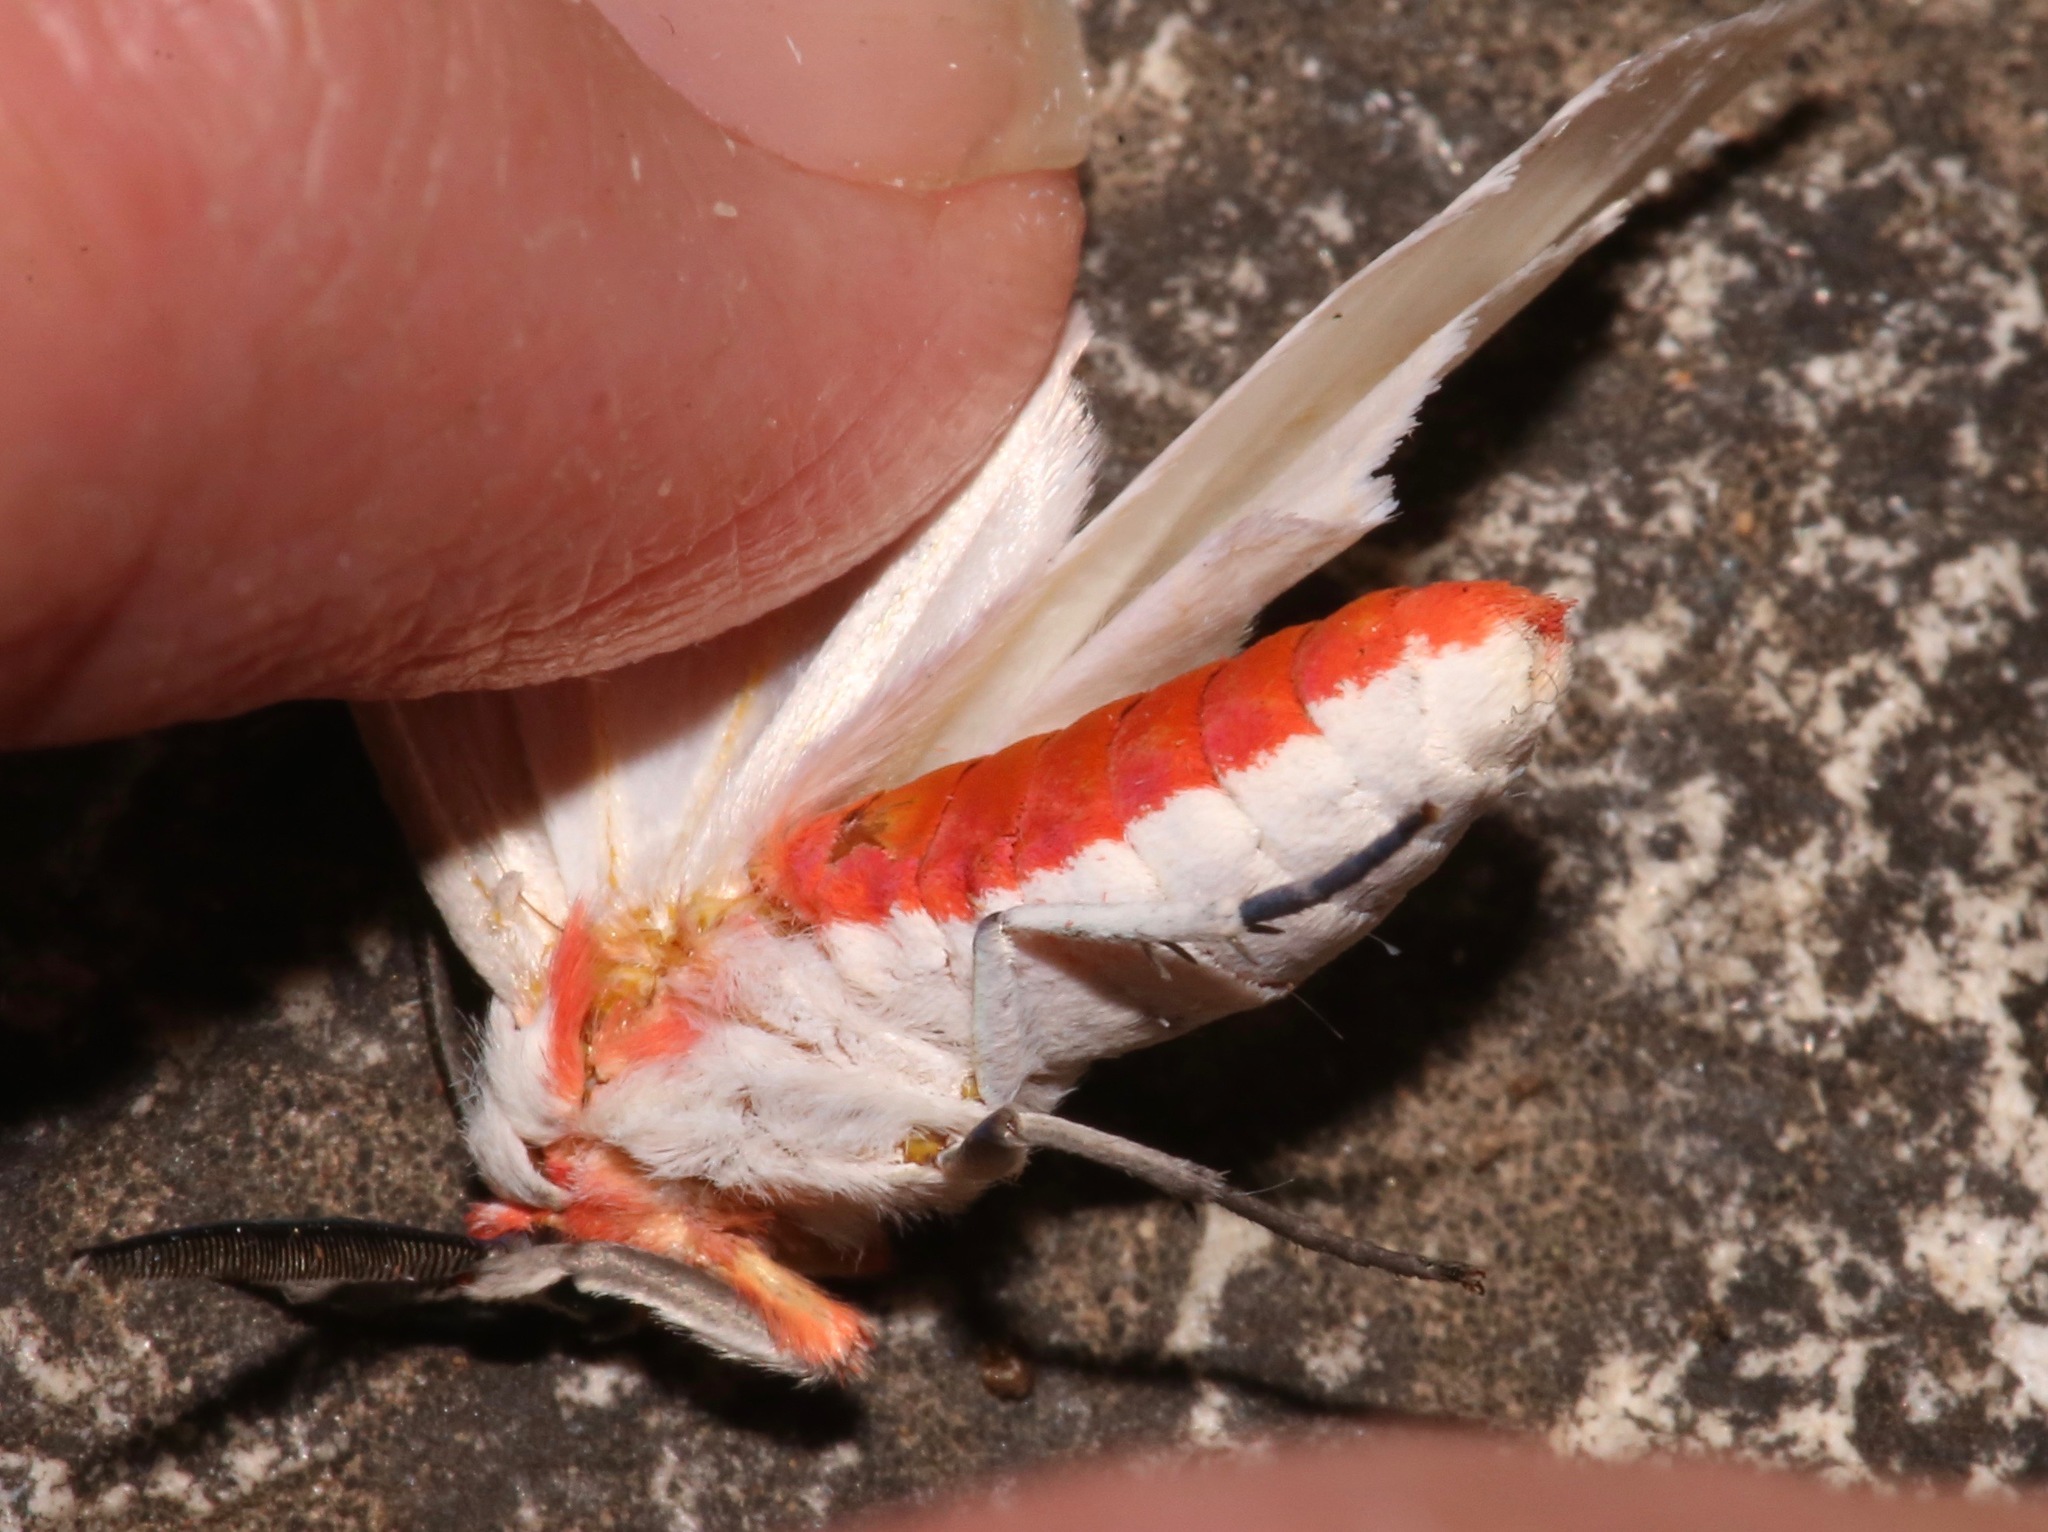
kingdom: Animalia
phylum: Arthropoda
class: Insecta
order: Lepidoptera
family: Erebidae
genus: Pygarctia
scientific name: Pygarctia roseicapitis
